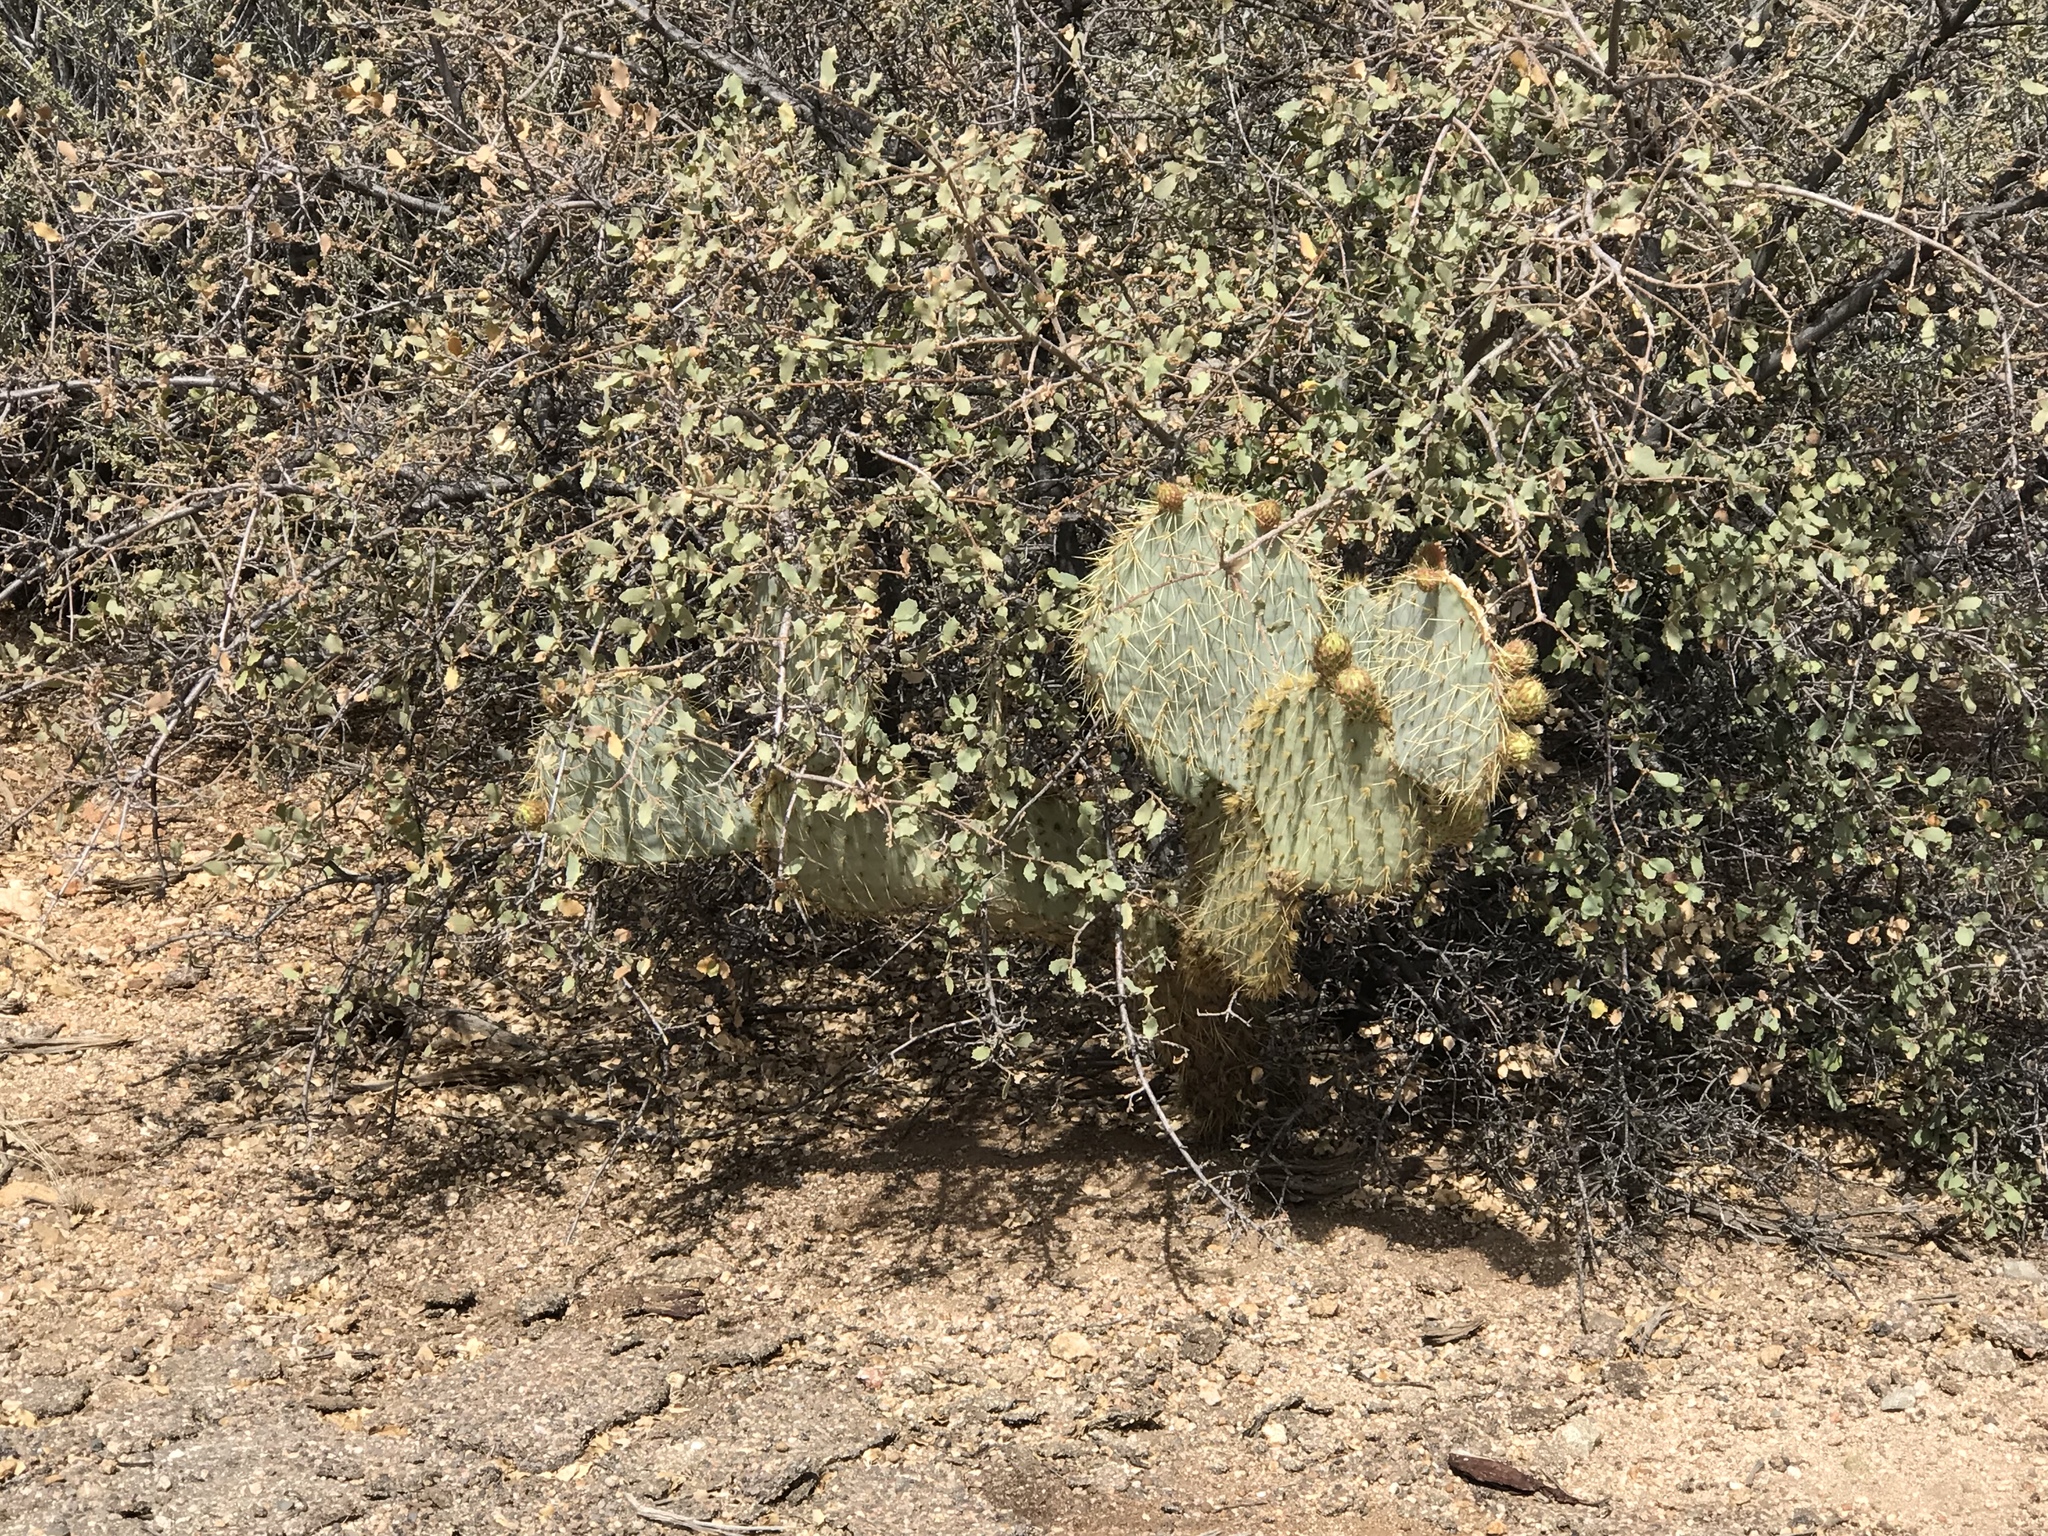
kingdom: Plantae
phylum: Tracheophyta
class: Magnoliopsida
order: Caryophyllales
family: Cactaceae
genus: Opuntia
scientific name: Opuntia chlorotica
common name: Dollar-joint prickly-pear
